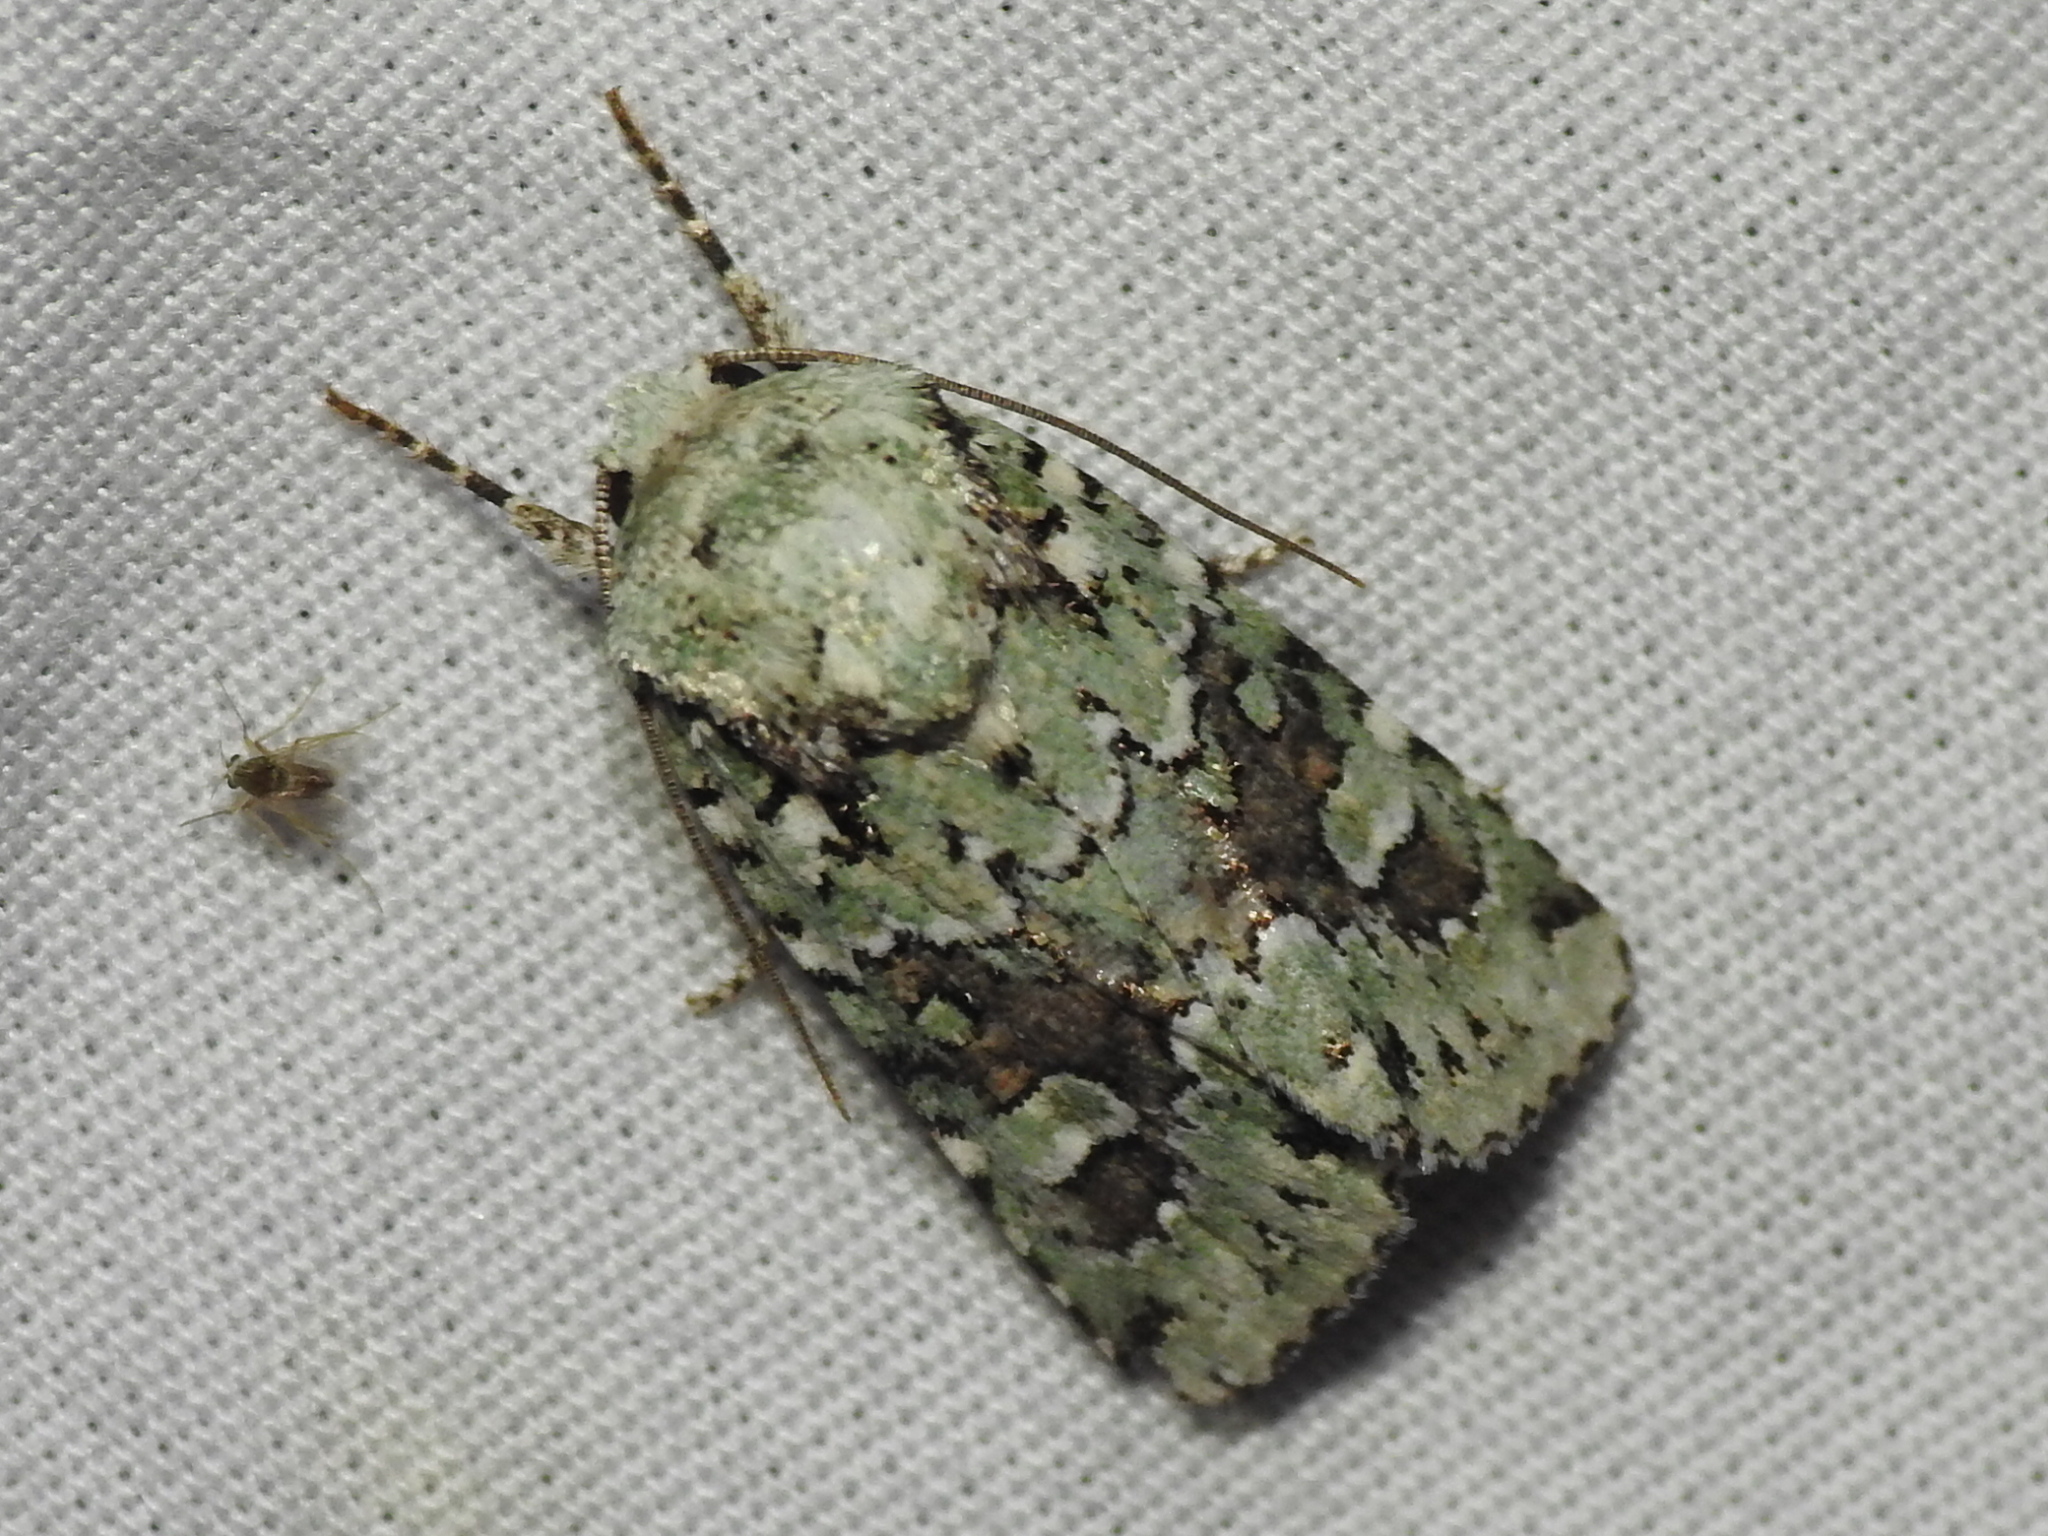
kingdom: Animalia
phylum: Arthropoda
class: Insecta
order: Lepidoptera
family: Noctuidae
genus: Lacinipolia
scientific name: Lacinipolia laudabilis
